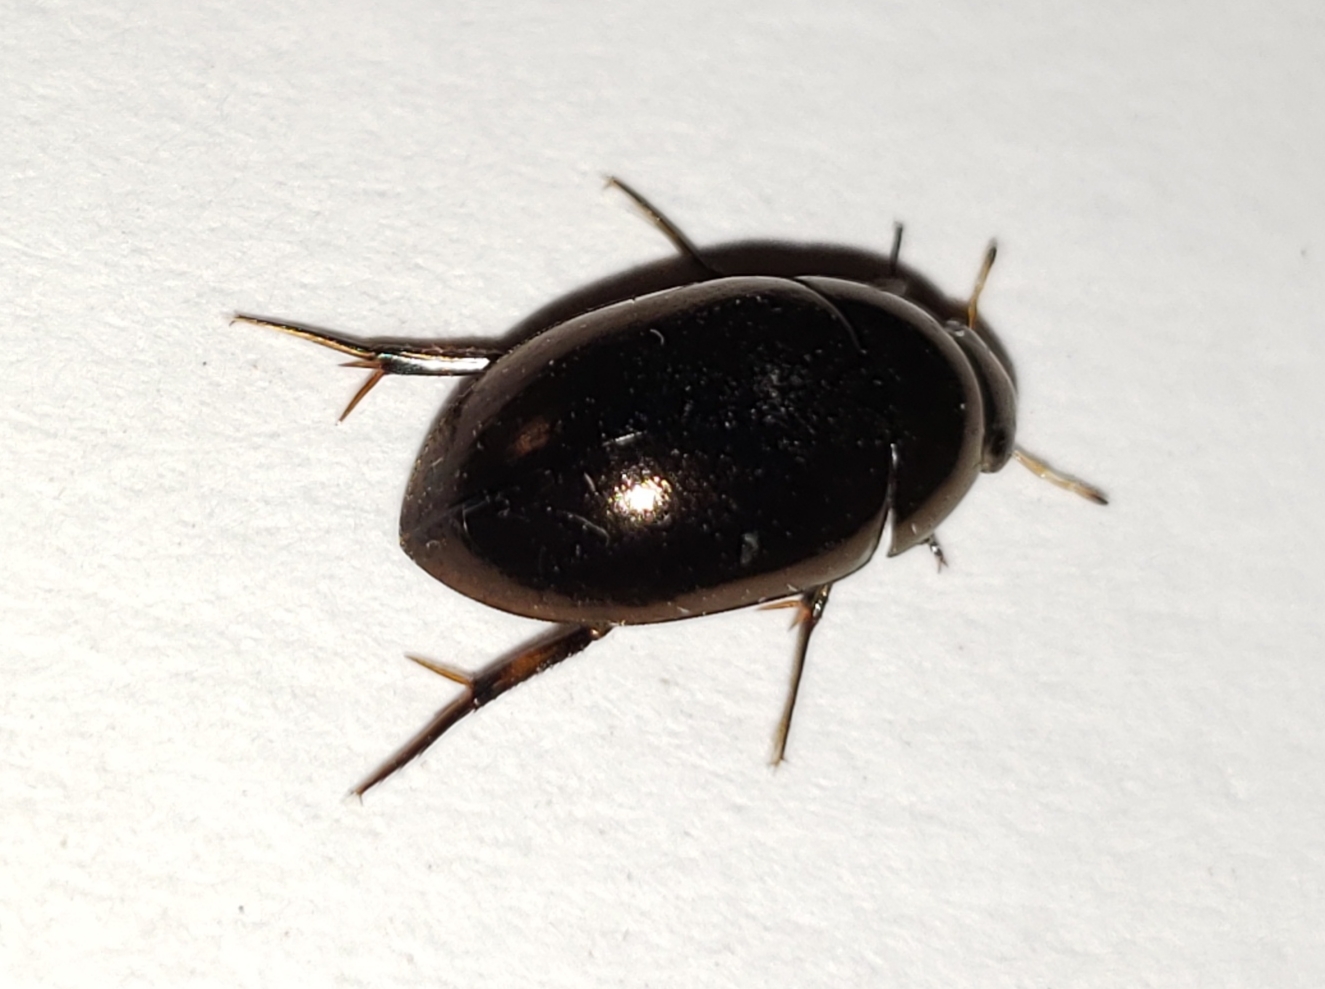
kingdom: Animalia
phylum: Arthropoda
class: Insecta
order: Coleoptera
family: Hydrophilidae
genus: Tropisternus
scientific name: Tropisternus blatchleyi
